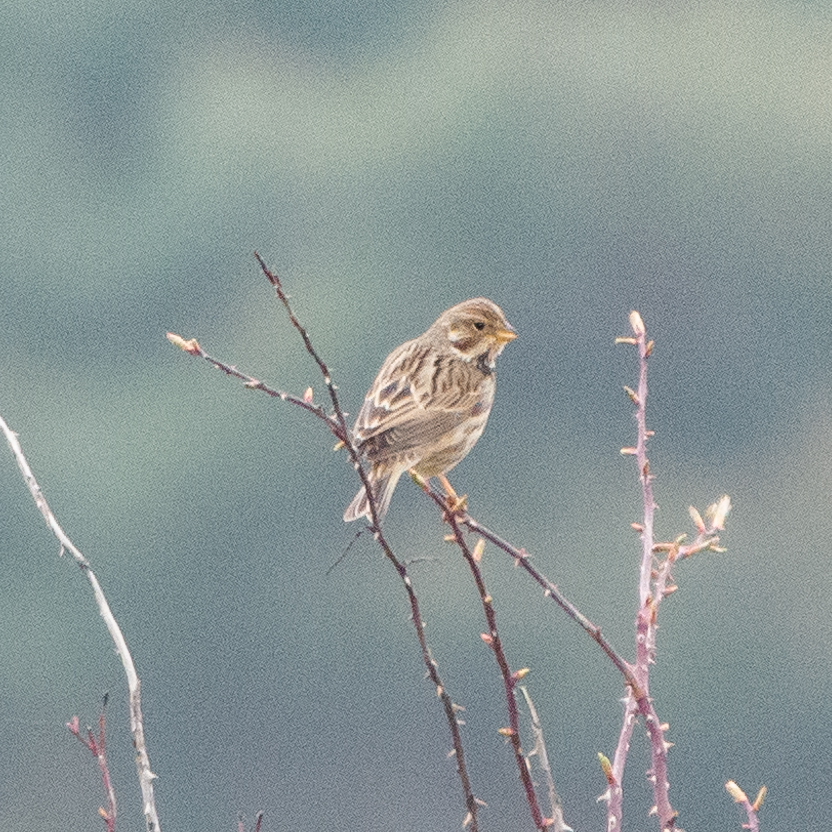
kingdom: Animalia
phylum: Chordata
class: Aves
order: Passeriformes
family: Emberizidae
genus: Emberiza
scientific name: Emberiza calandra
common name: Corn bunting
